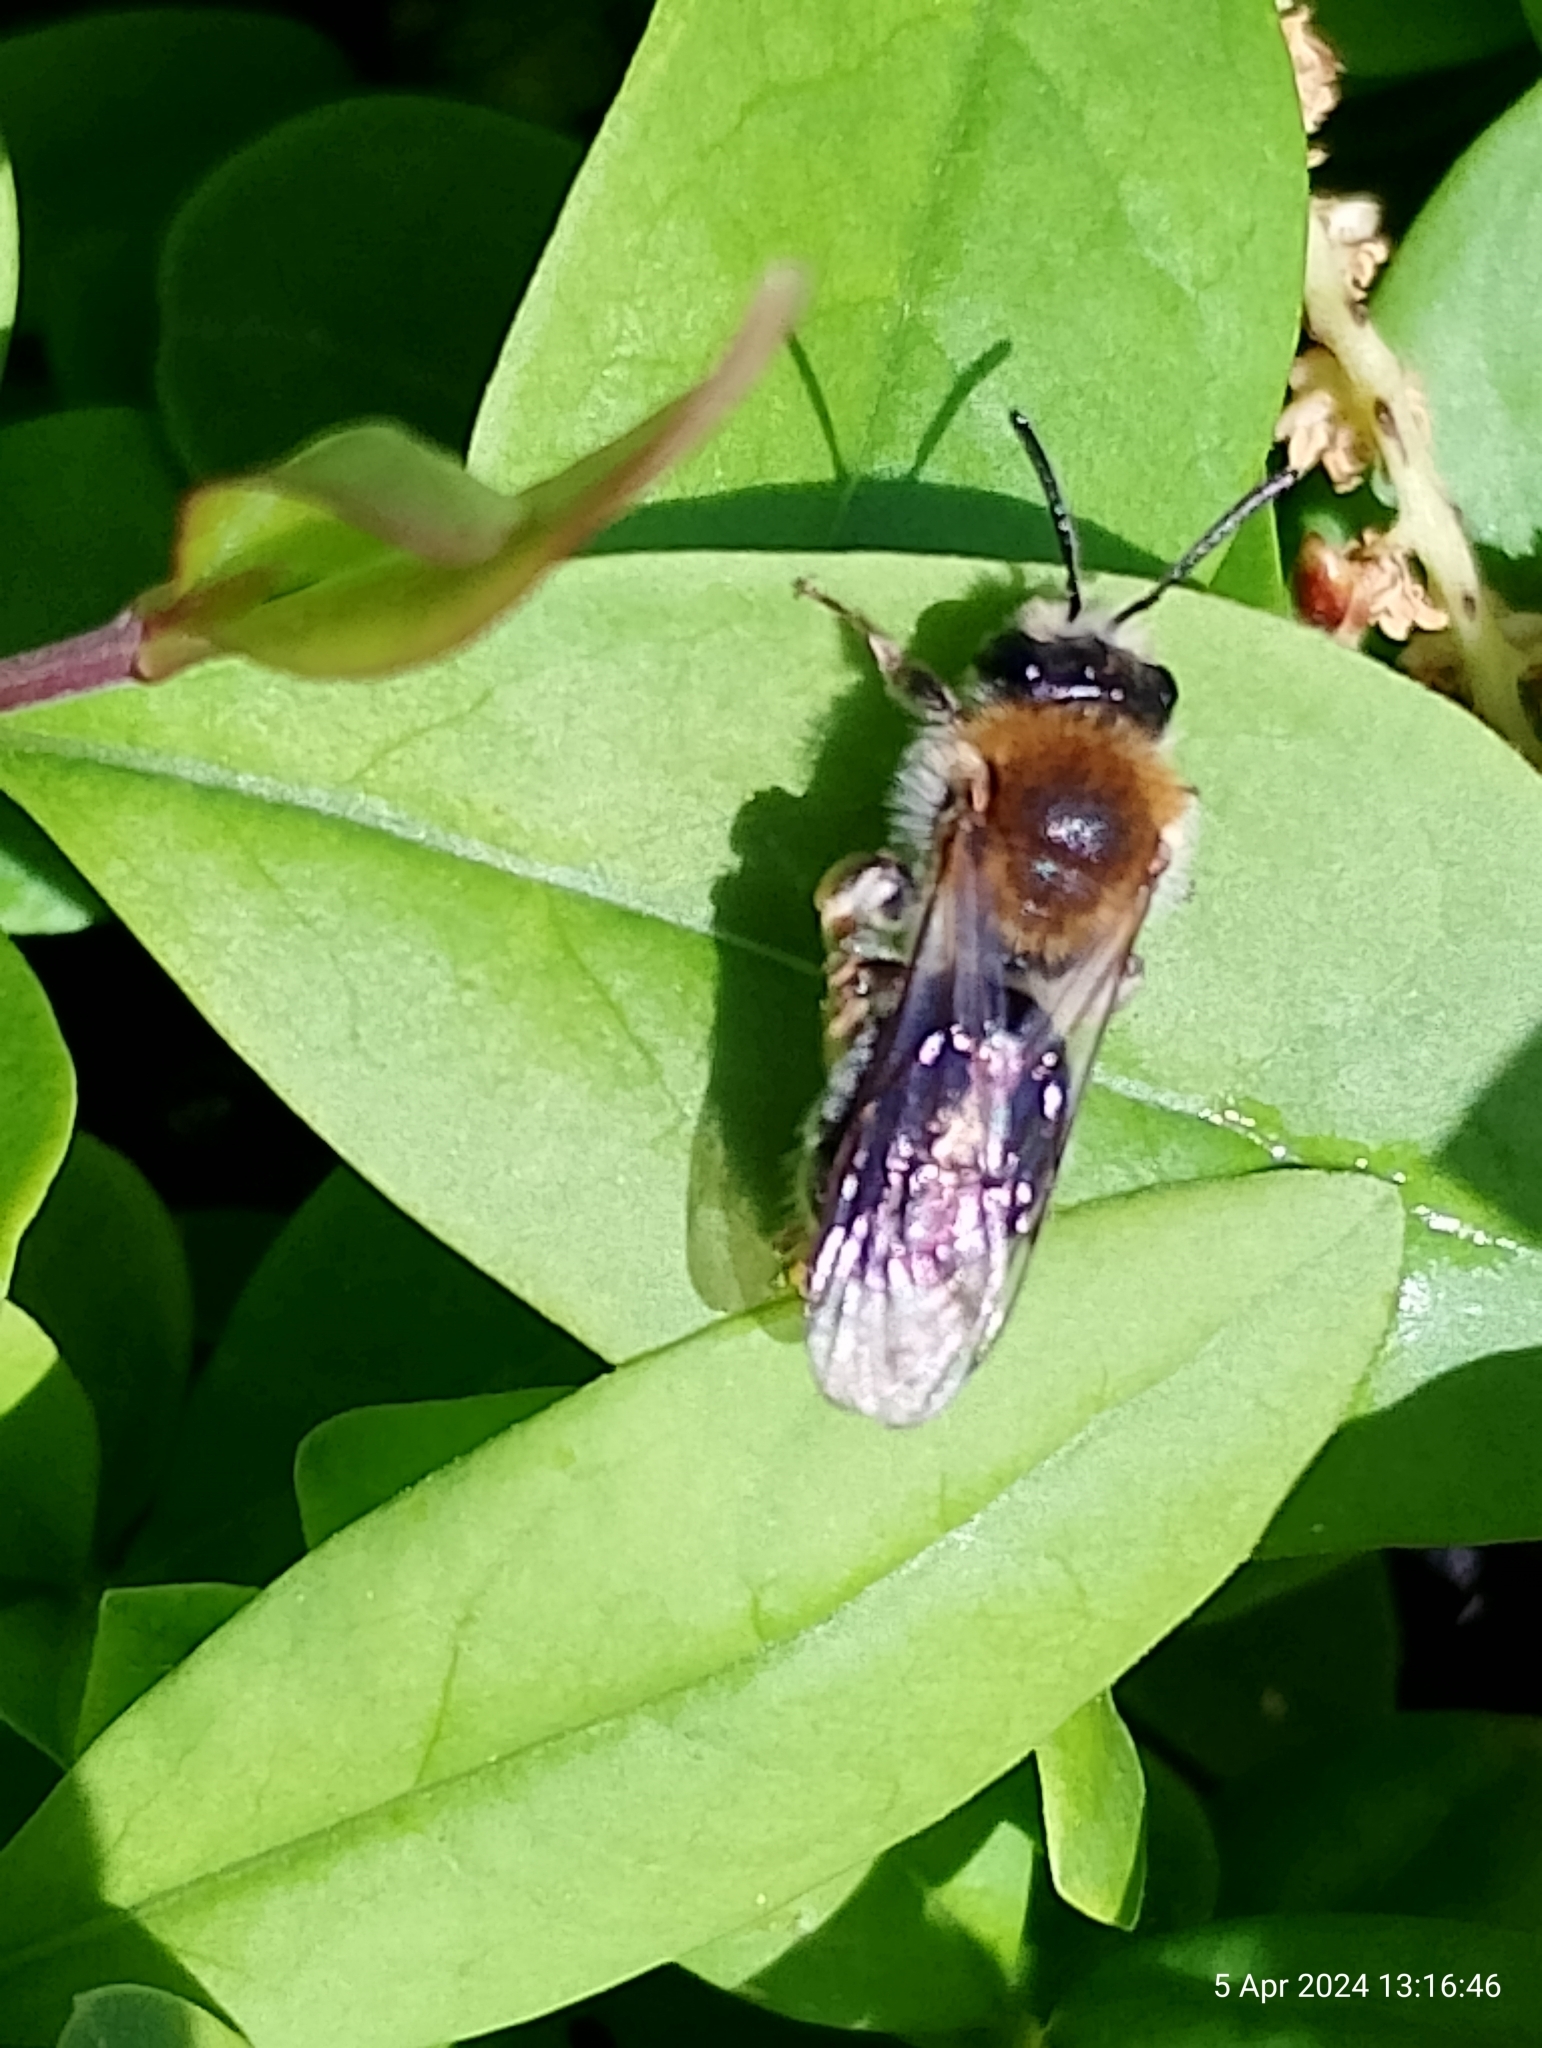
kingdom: Animalia
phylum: Arthropoda
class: Insecta
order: Hymenoptera
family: Andrenidae
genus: Andrena
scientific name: Andrena haemorrhoa
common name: Early mining bee
